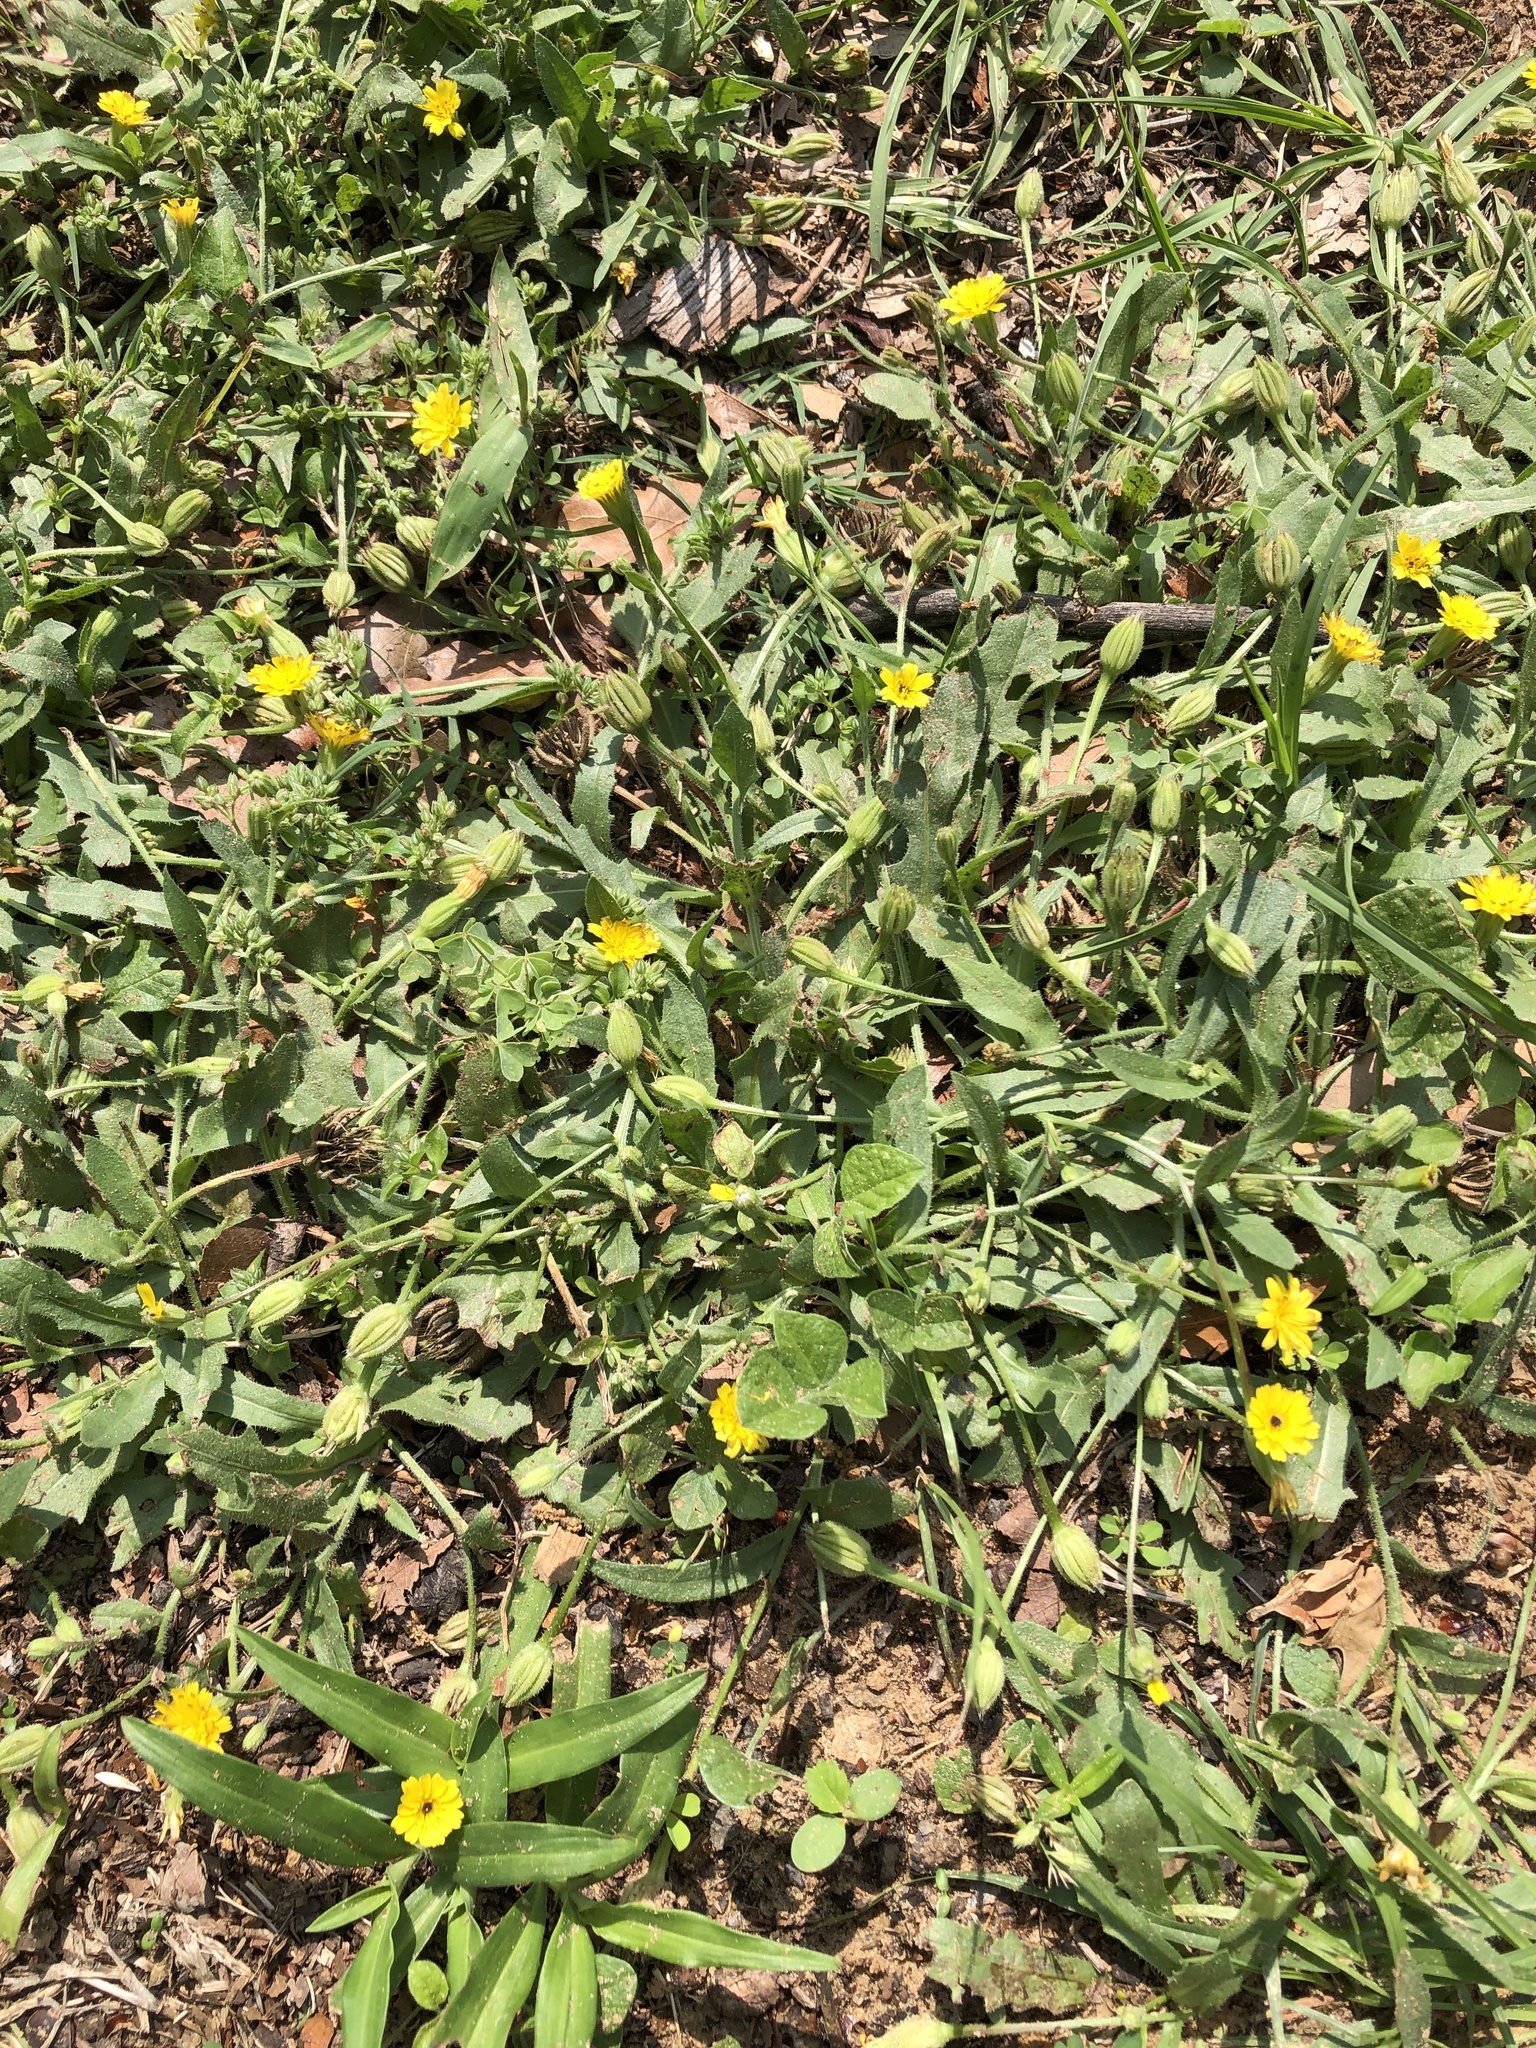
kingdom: Plantae
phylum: Tracheophyta
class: Magnoliopsida
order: Asterales
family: Asteraceae
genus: Hedypnois
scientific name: Hedypnois rhagadioloides
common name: Cretan weed
